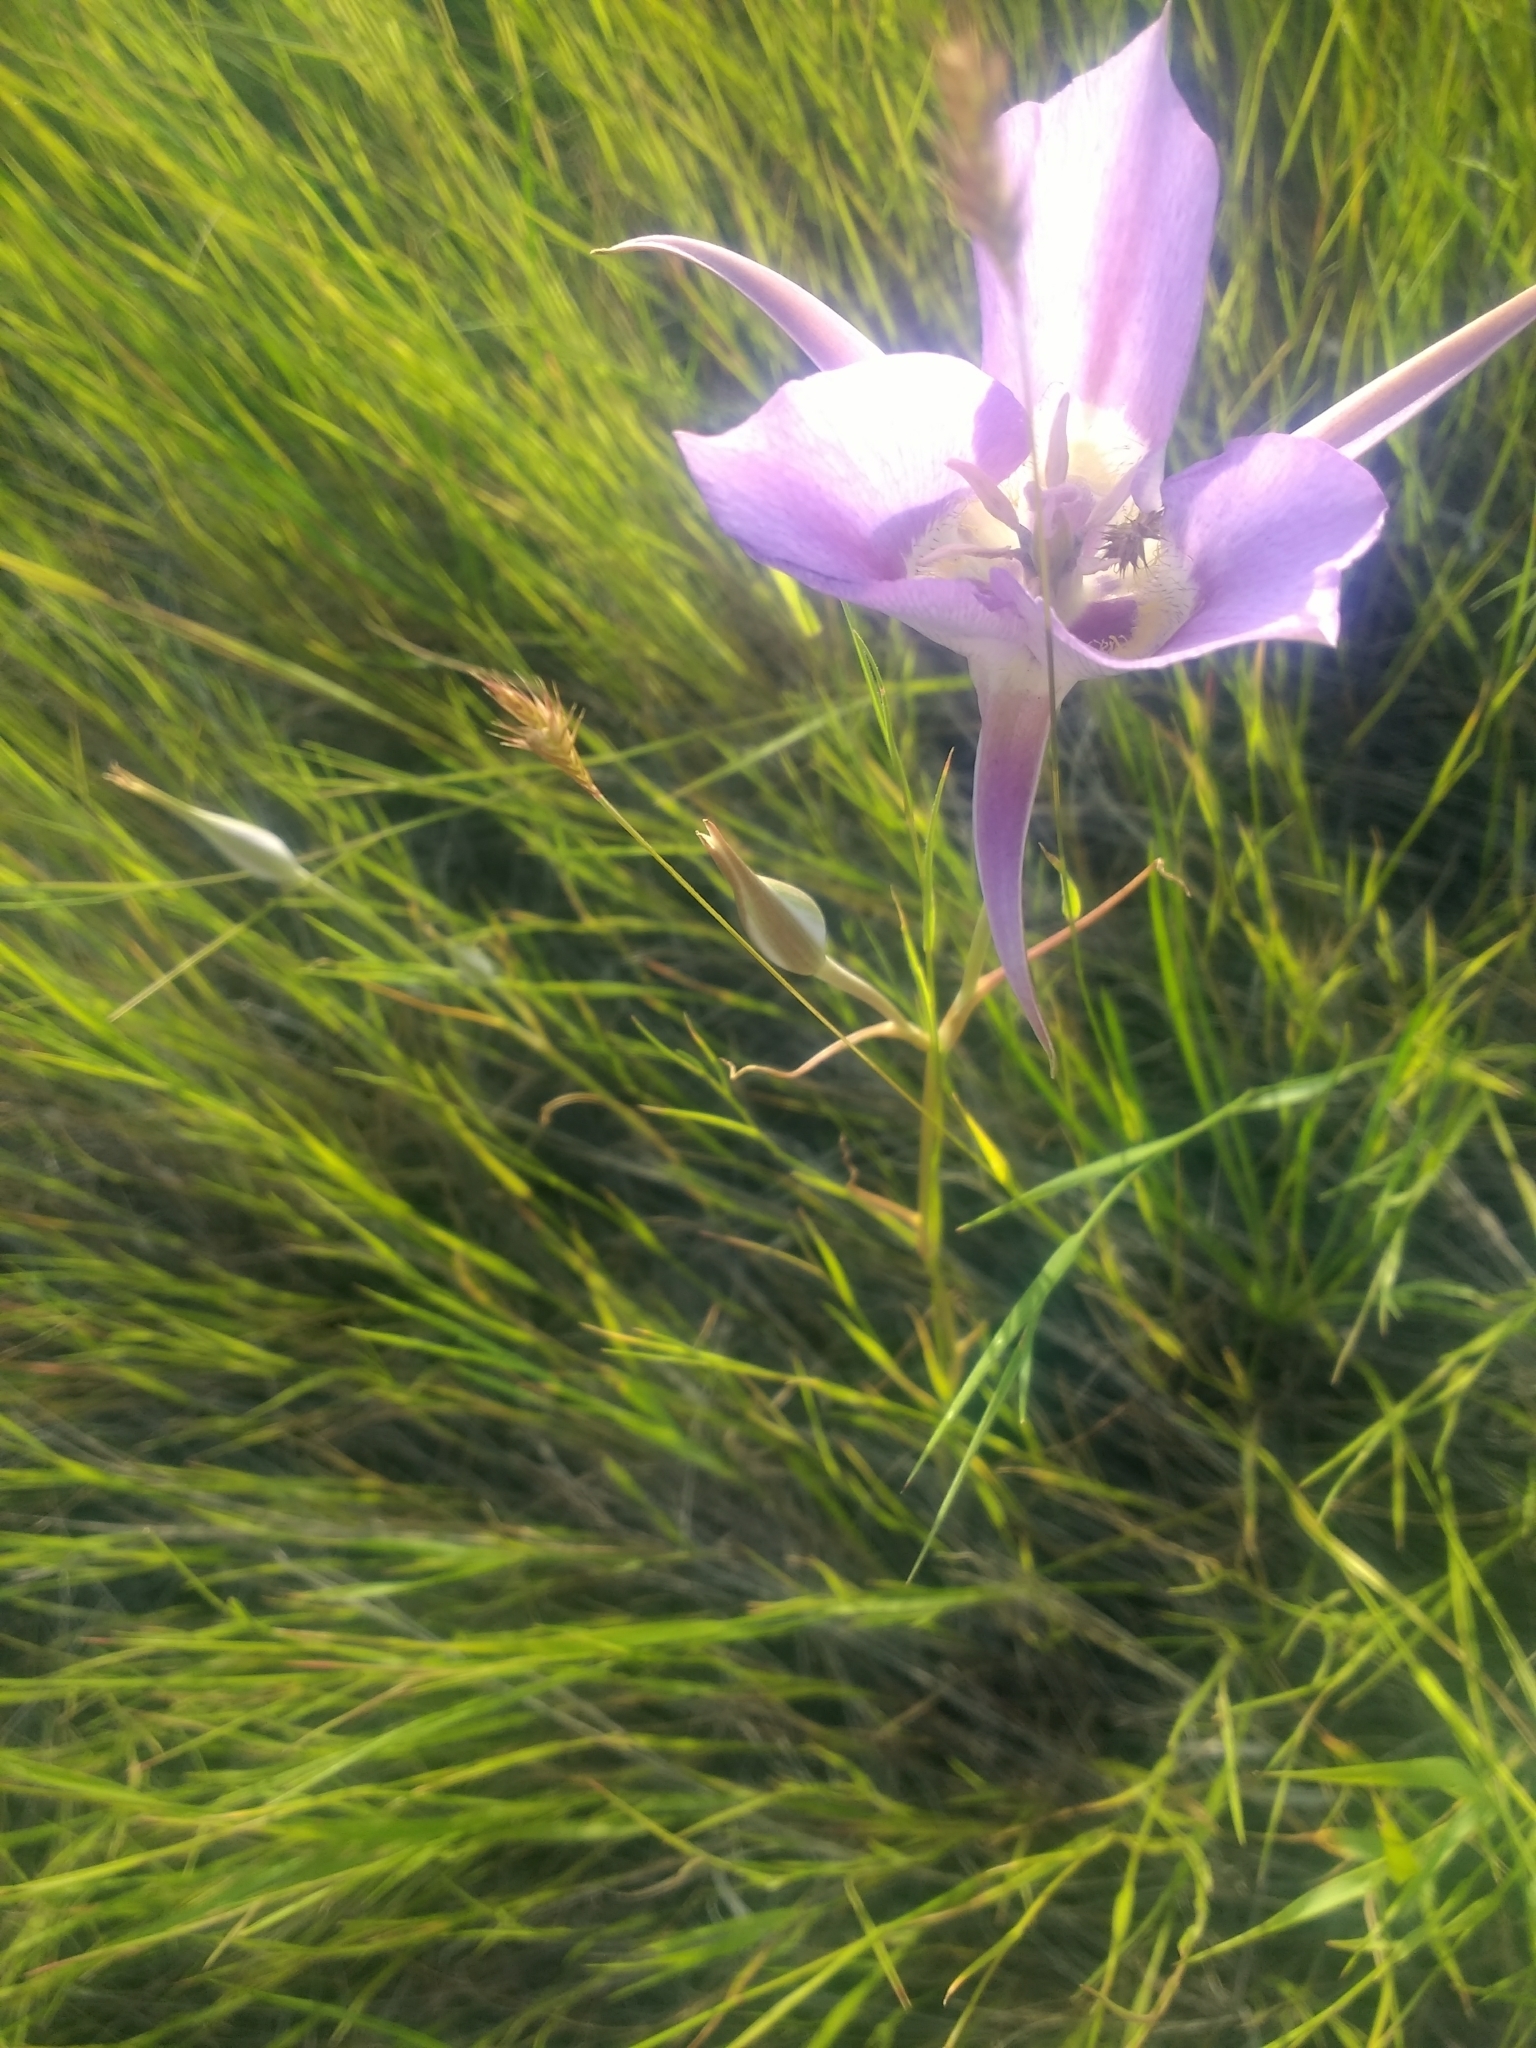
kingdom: Plantae
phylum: Tracheophyta
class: Liliopsida
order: Liliales
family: Liliaceae
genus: Calochortus
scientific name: Calochortus macrocarpus
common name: Green-band mariposa lily
